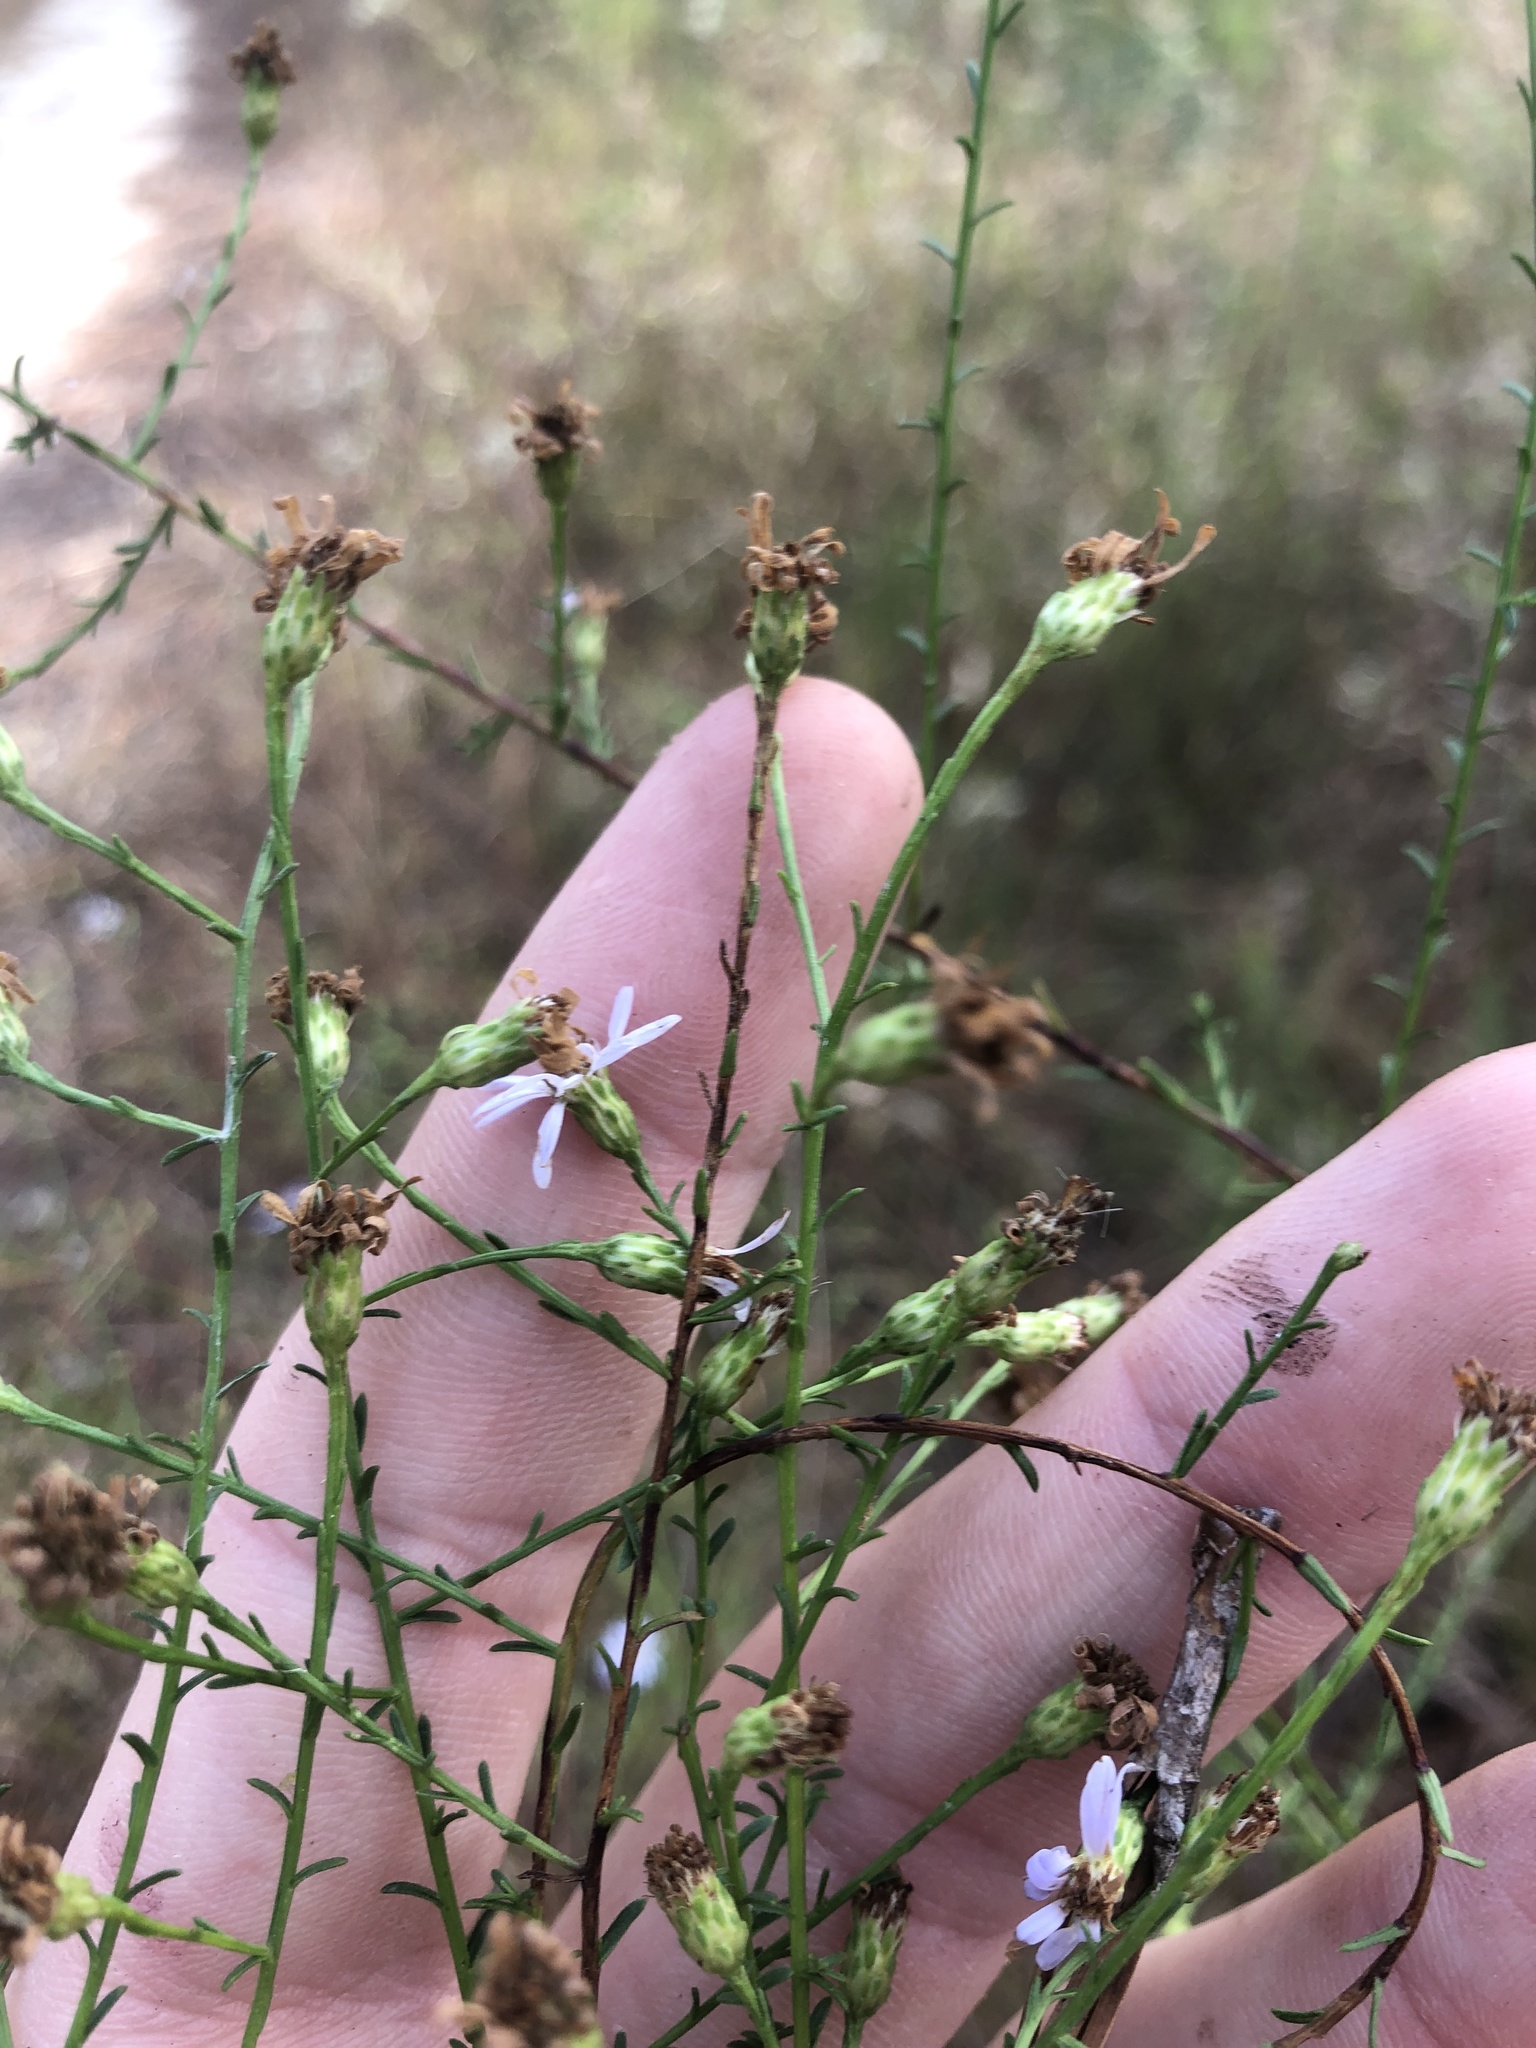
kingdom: Plantae
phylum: Tracheophyta
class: Magnoliopsida
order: Asterales
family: Asteraceae
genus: Symphyotrichum
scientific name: Symphyotrichum dumosum
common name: Bushy aster
